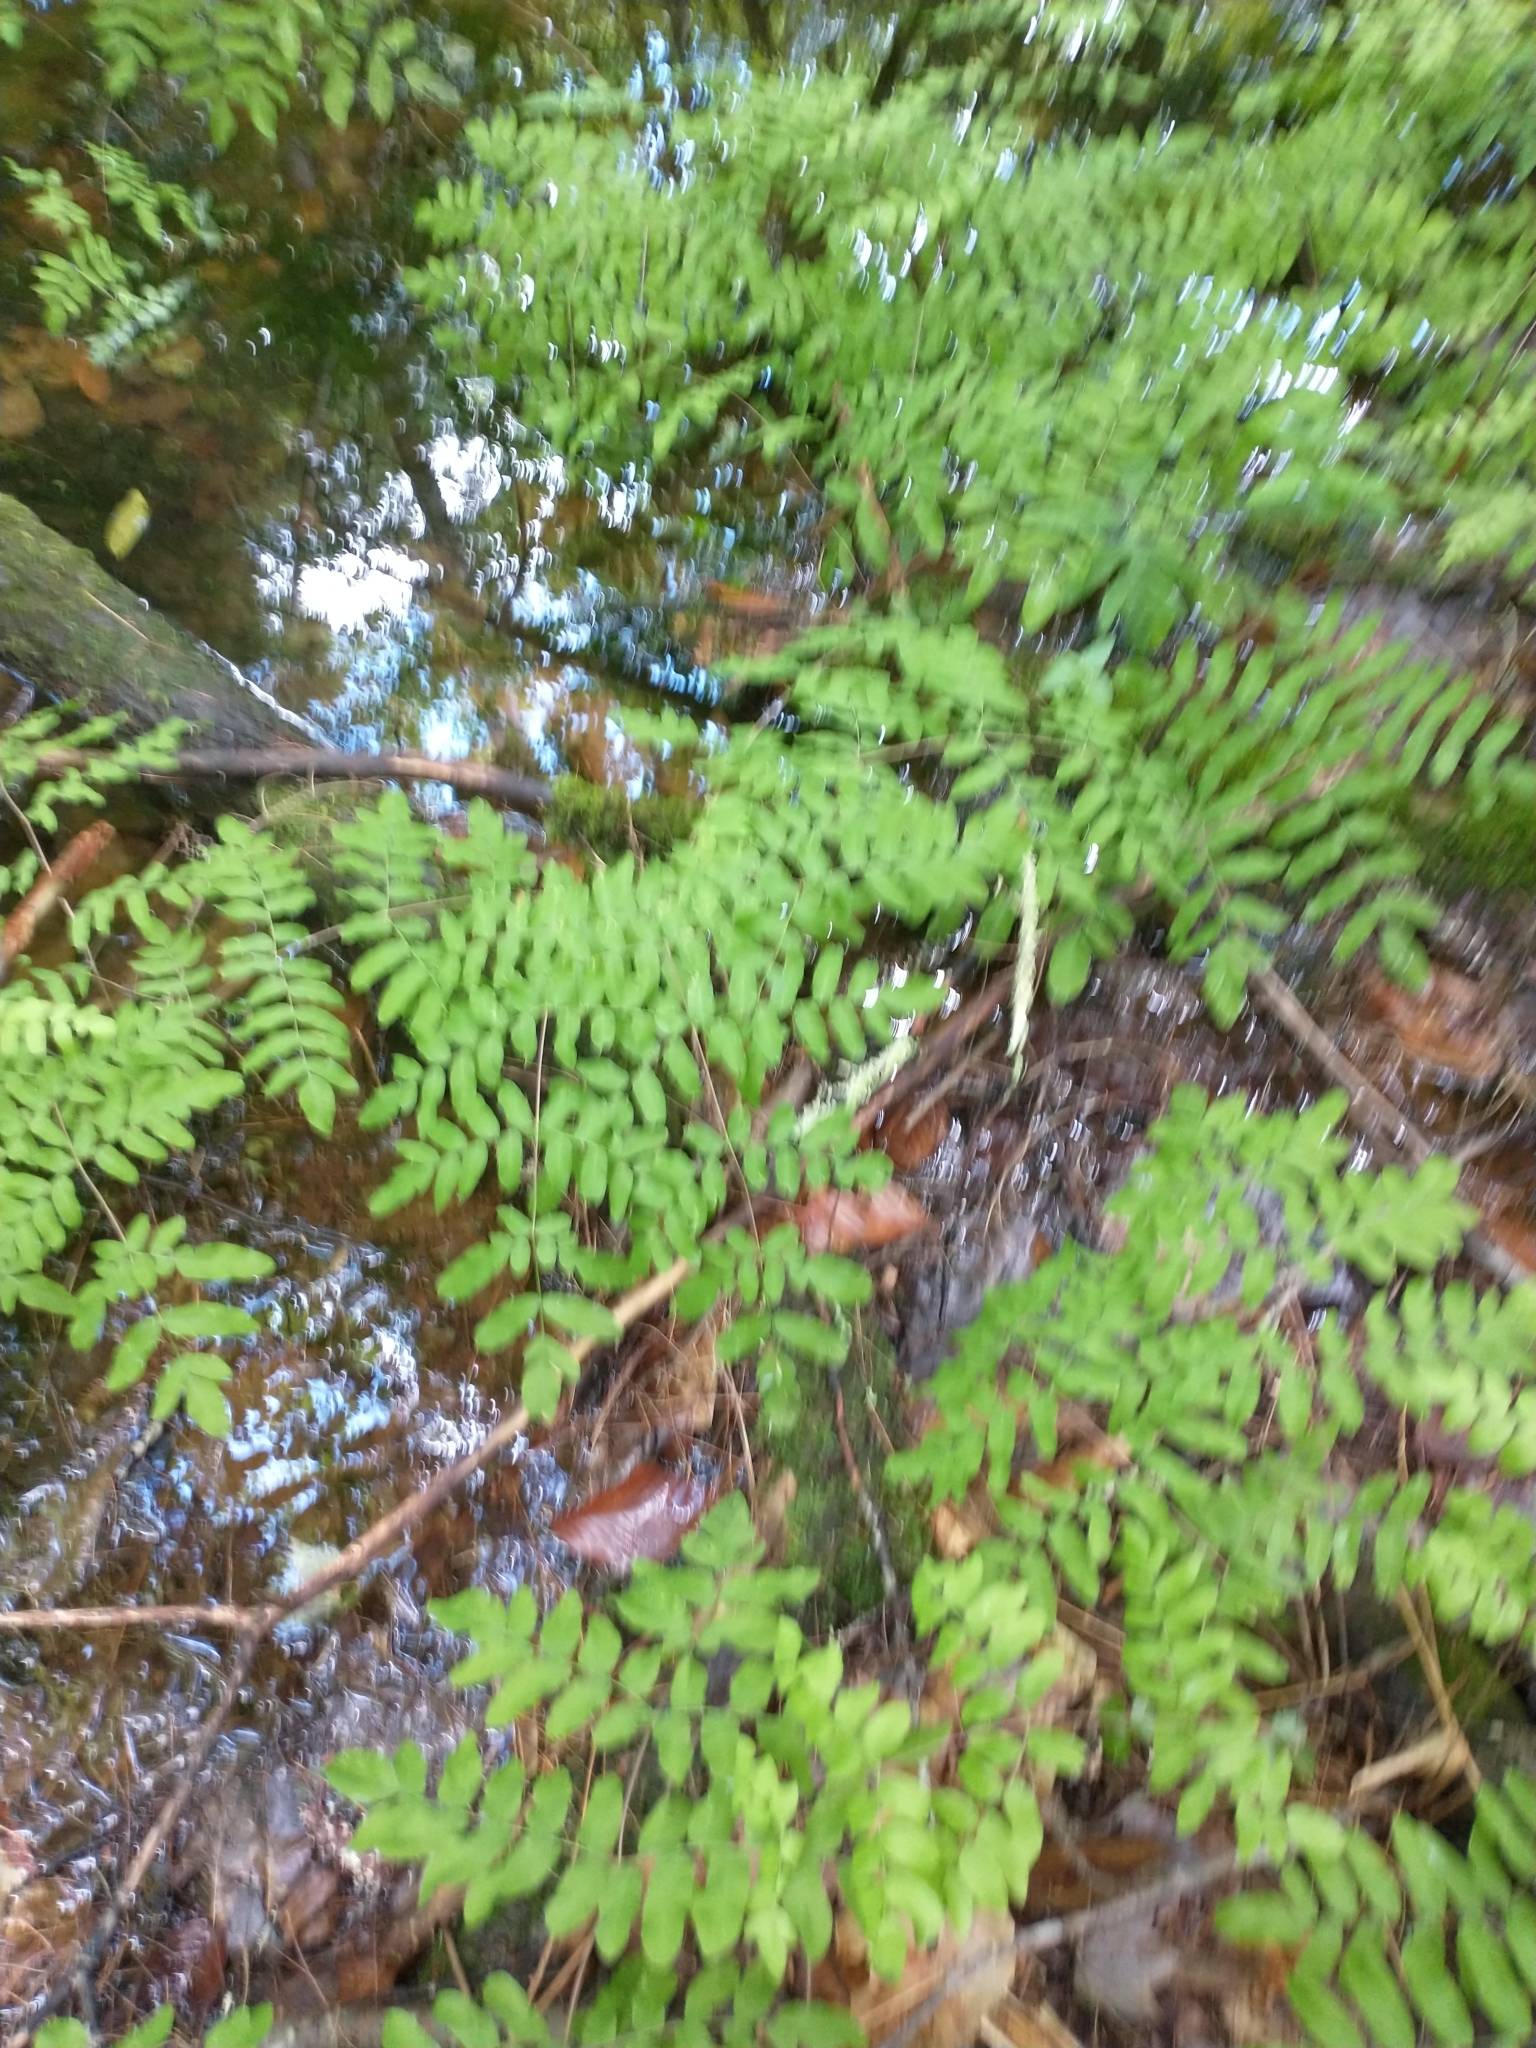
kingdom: Plantae
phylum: Tracheophyta
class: Polypodiopsida
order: Osmundales
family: Osmundaceae
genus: Osmunda
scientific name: Osmunda spectabilis
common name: American royal fern
